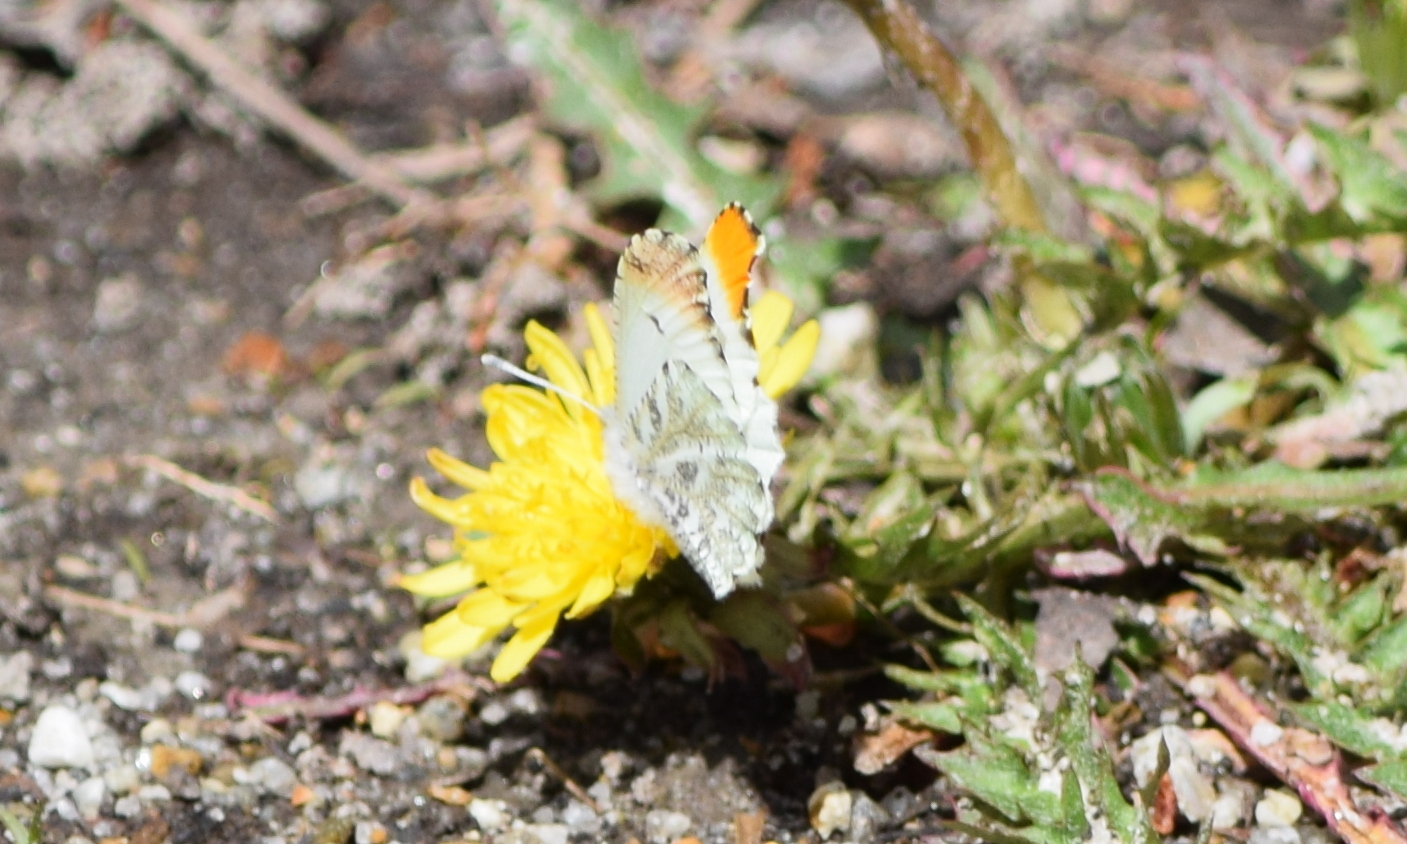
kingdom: Animalia
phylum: Arthropoda
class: Insecta
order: Lepidoptera
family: Pieridae
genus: Anthocharis
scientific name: Anthocharis midea
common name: Falcate orangetip
